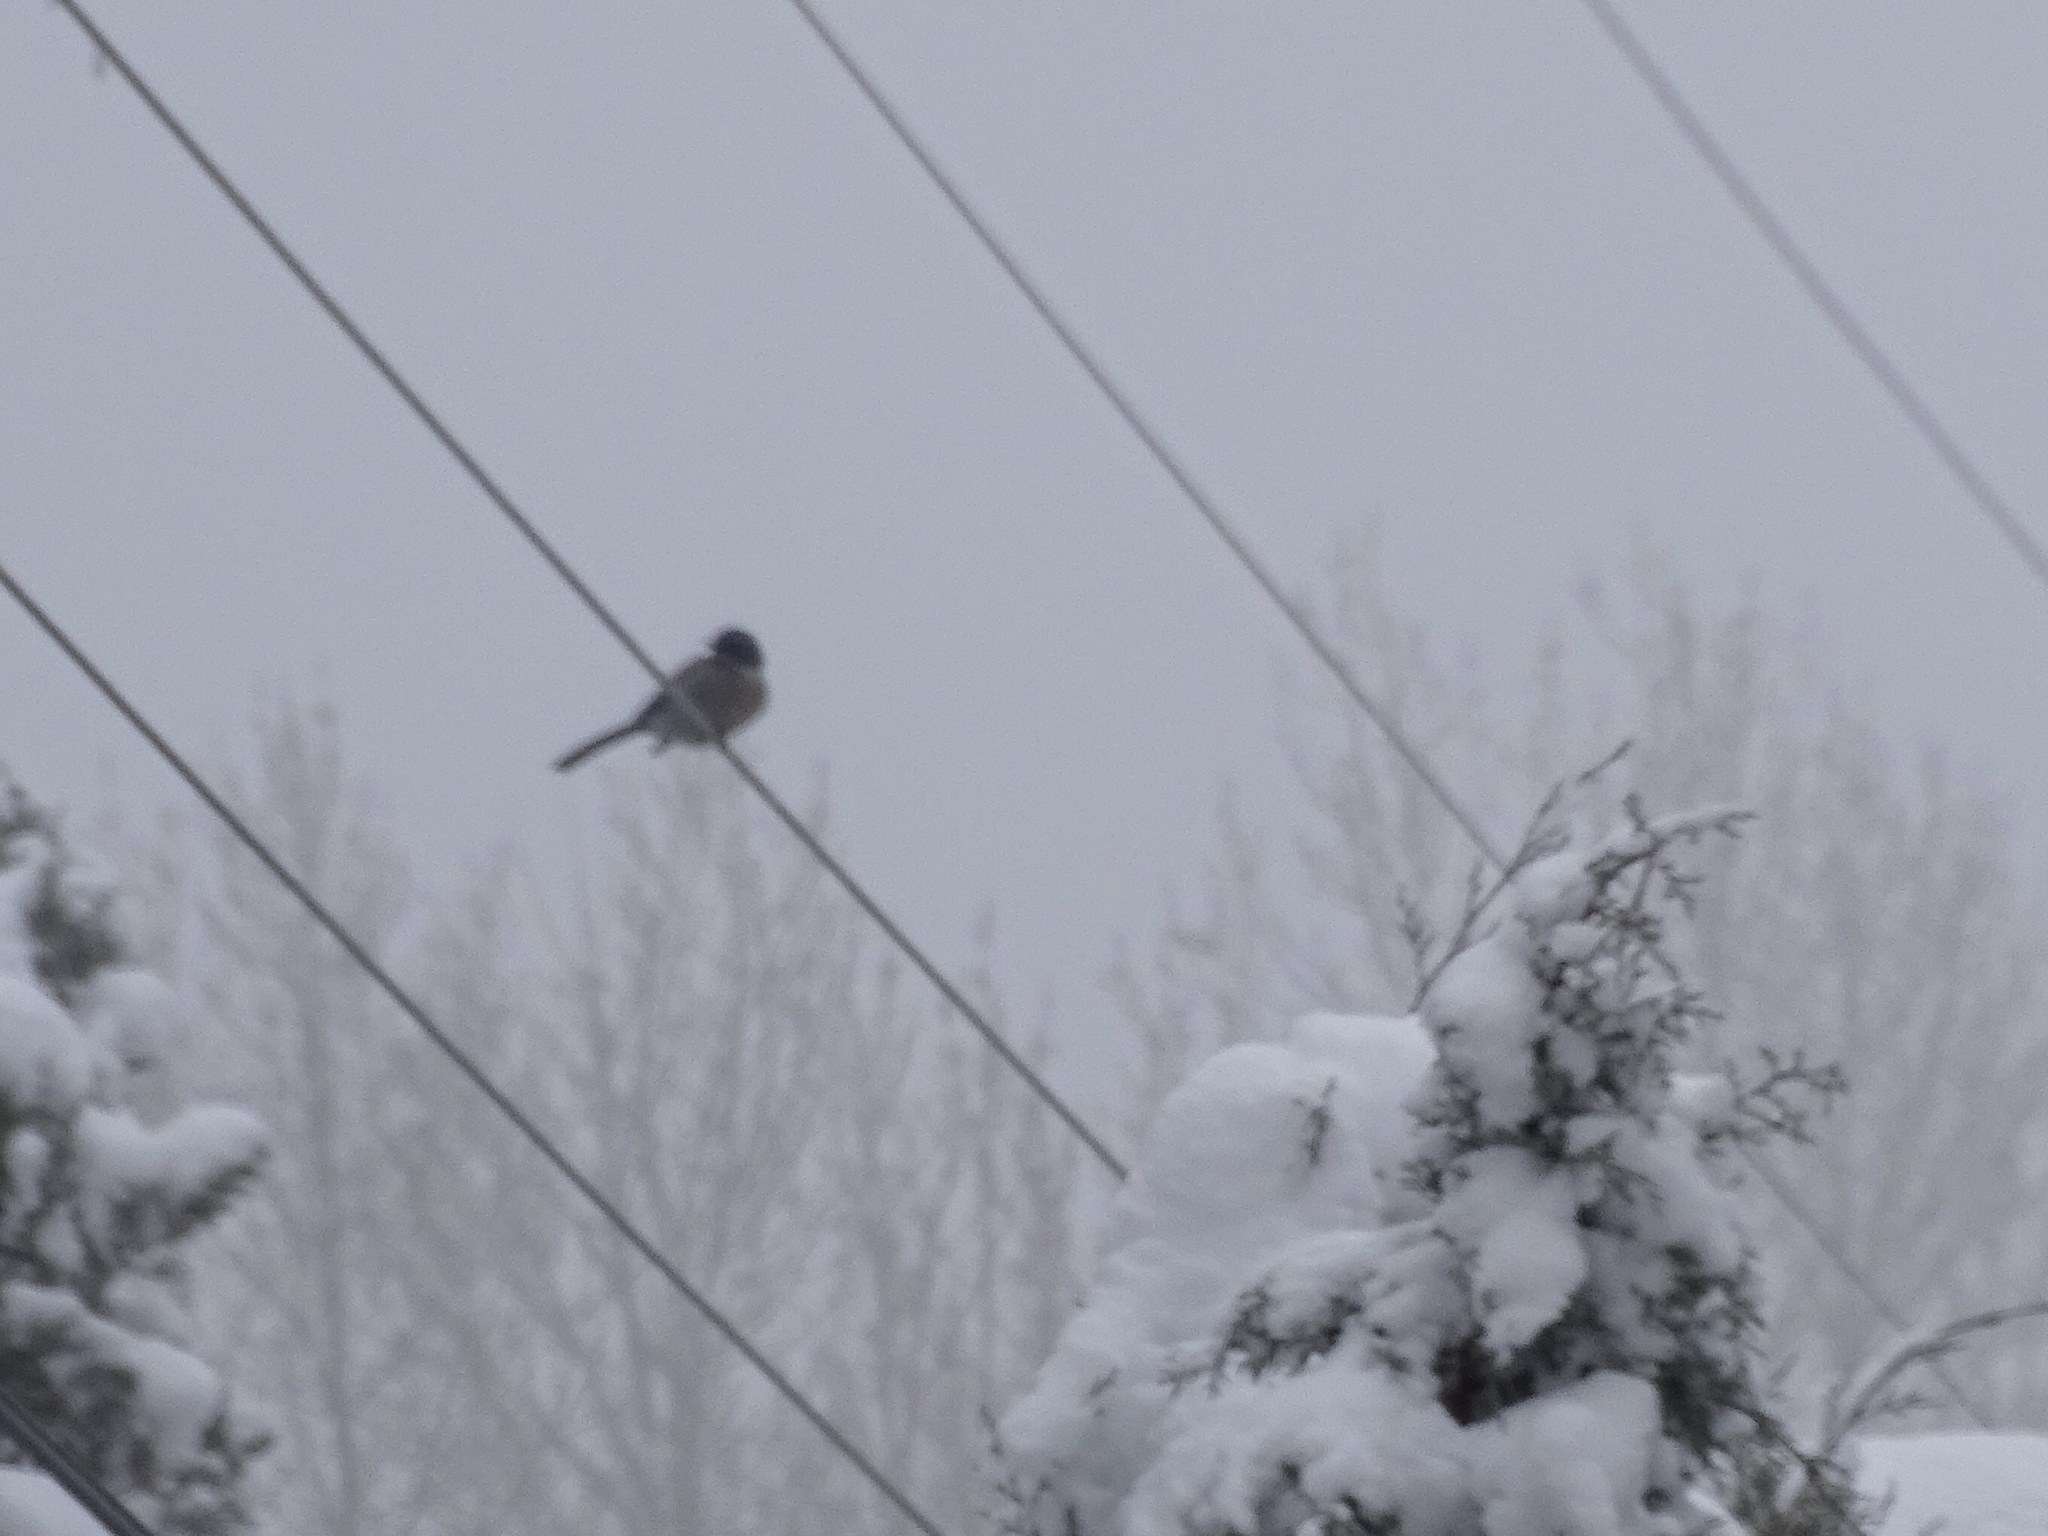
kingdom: Animalia
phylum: Chordata
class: Aves
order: Passeriformes
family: Corvidae
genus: Aphelocoma
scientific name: Aphelocoma woodhouseii
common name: Woodhouse's scrub-jay
